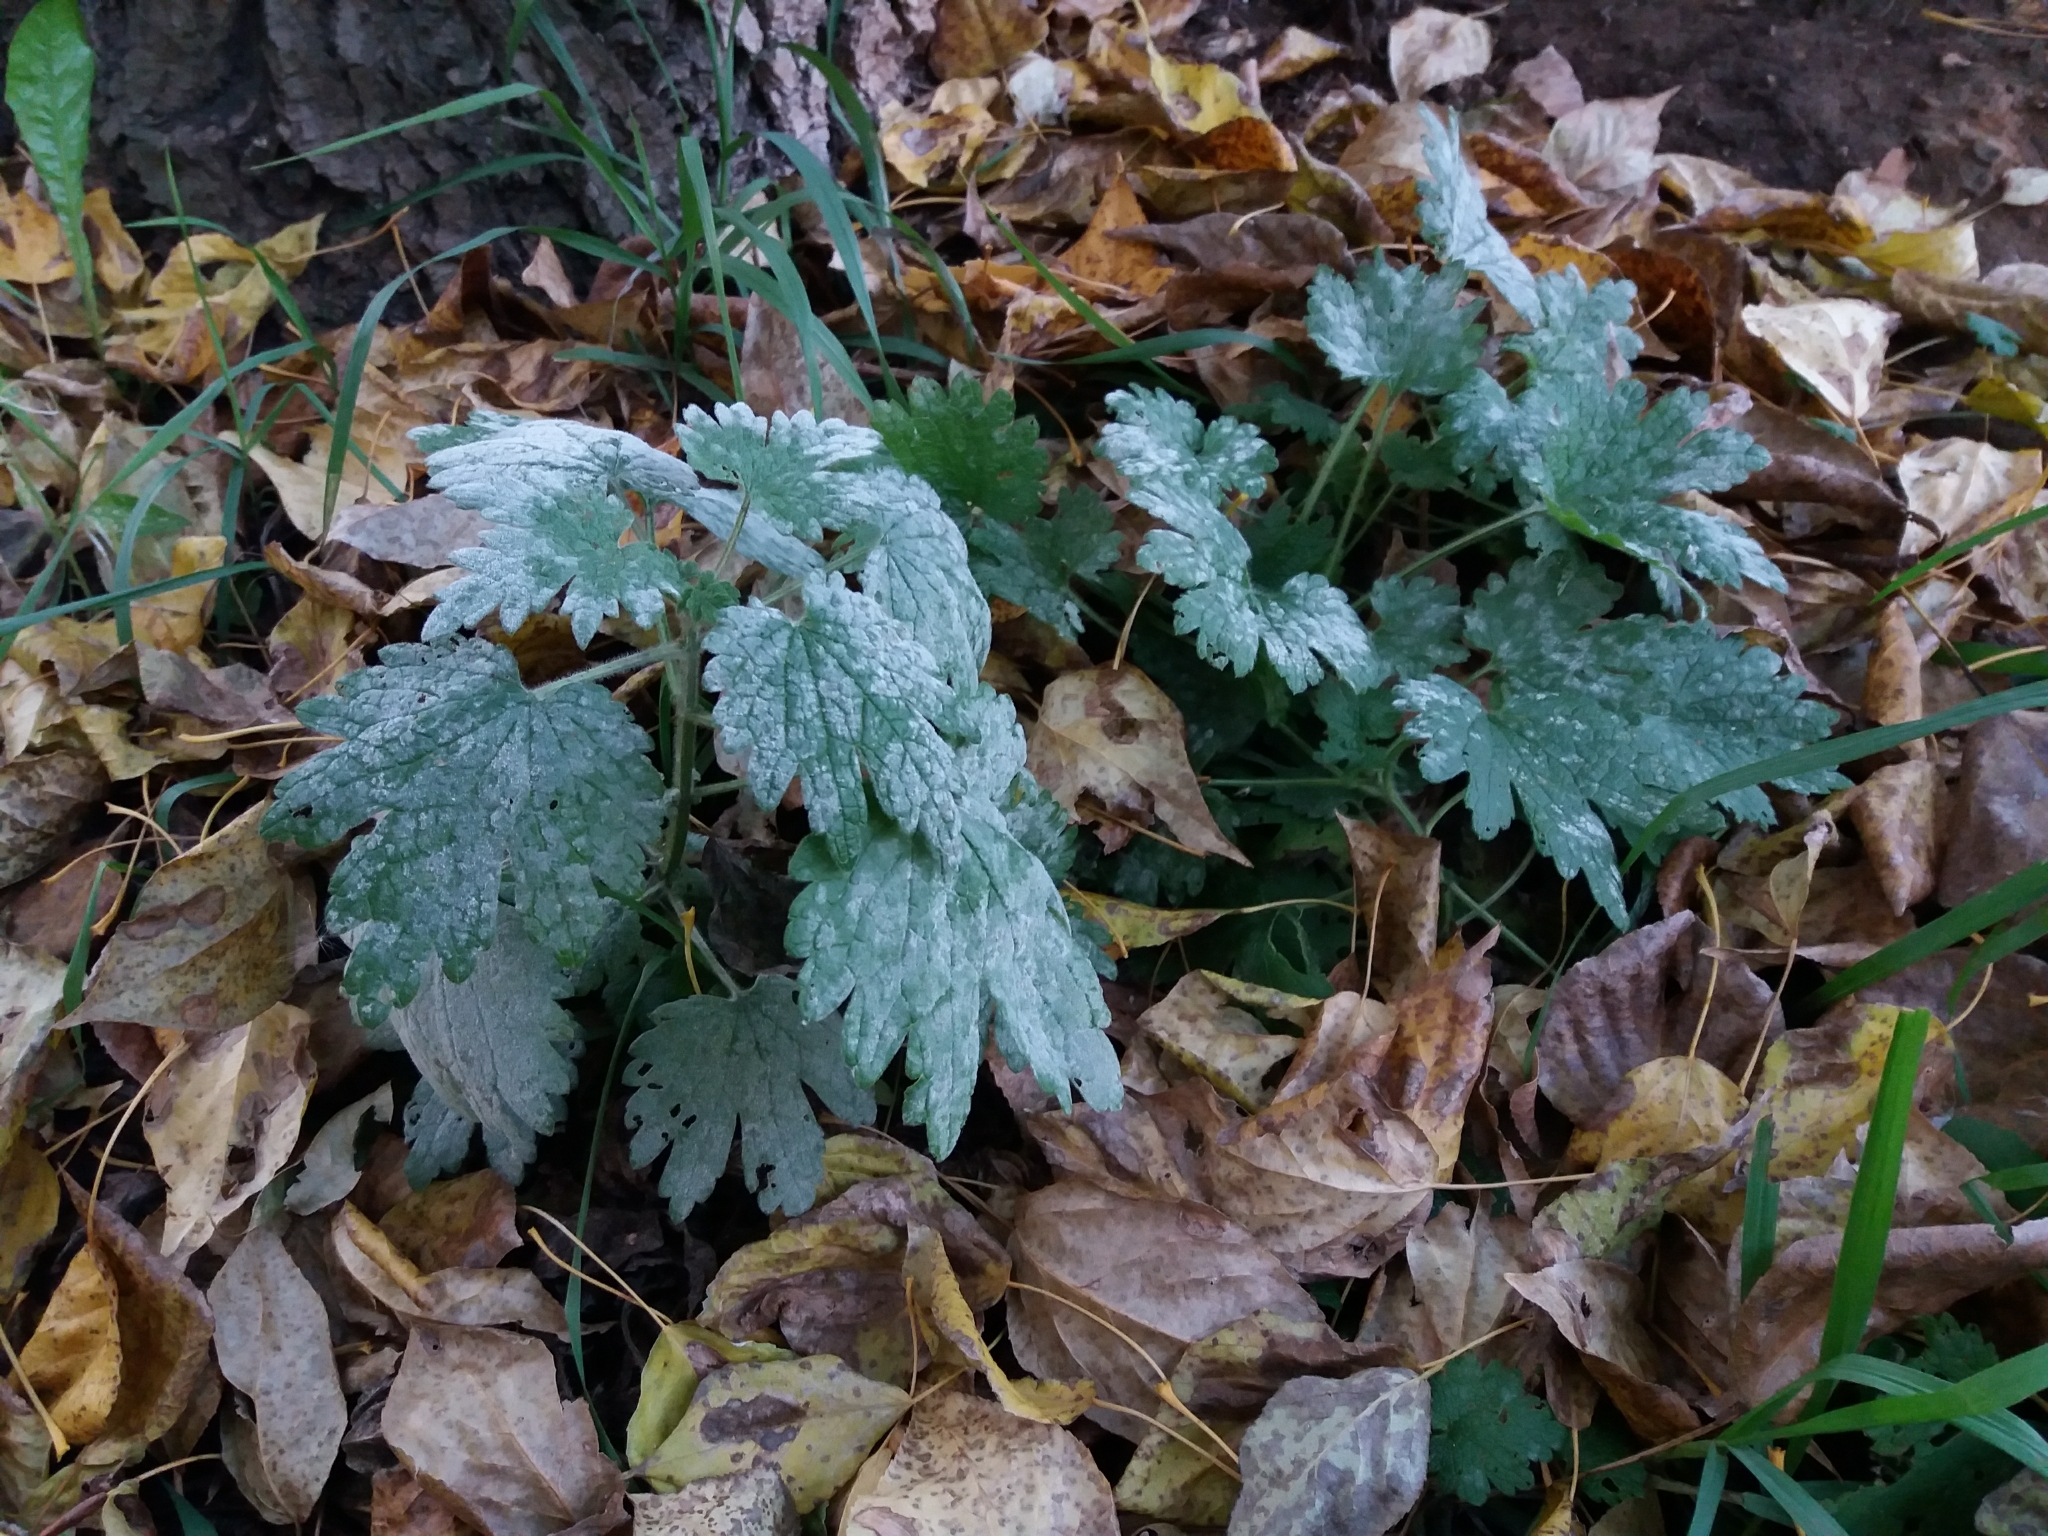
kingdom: Plantae
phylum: Tracheophyta
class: Magnoliopsida
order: Lamiales
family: Lamiaceae
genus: Leonurus
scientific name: Leonurus quinquelobatus
